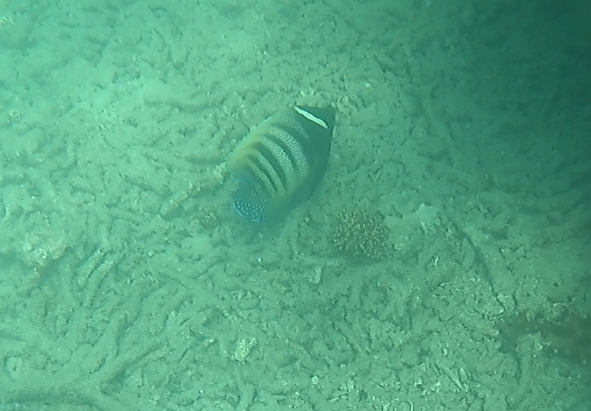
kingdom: Animalia
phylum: Chordata
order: Perciformes
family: Pomacanthidae
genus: Pomacanthus
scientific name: Pomacanthus sexstriatus
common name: Six-banded angelfish
